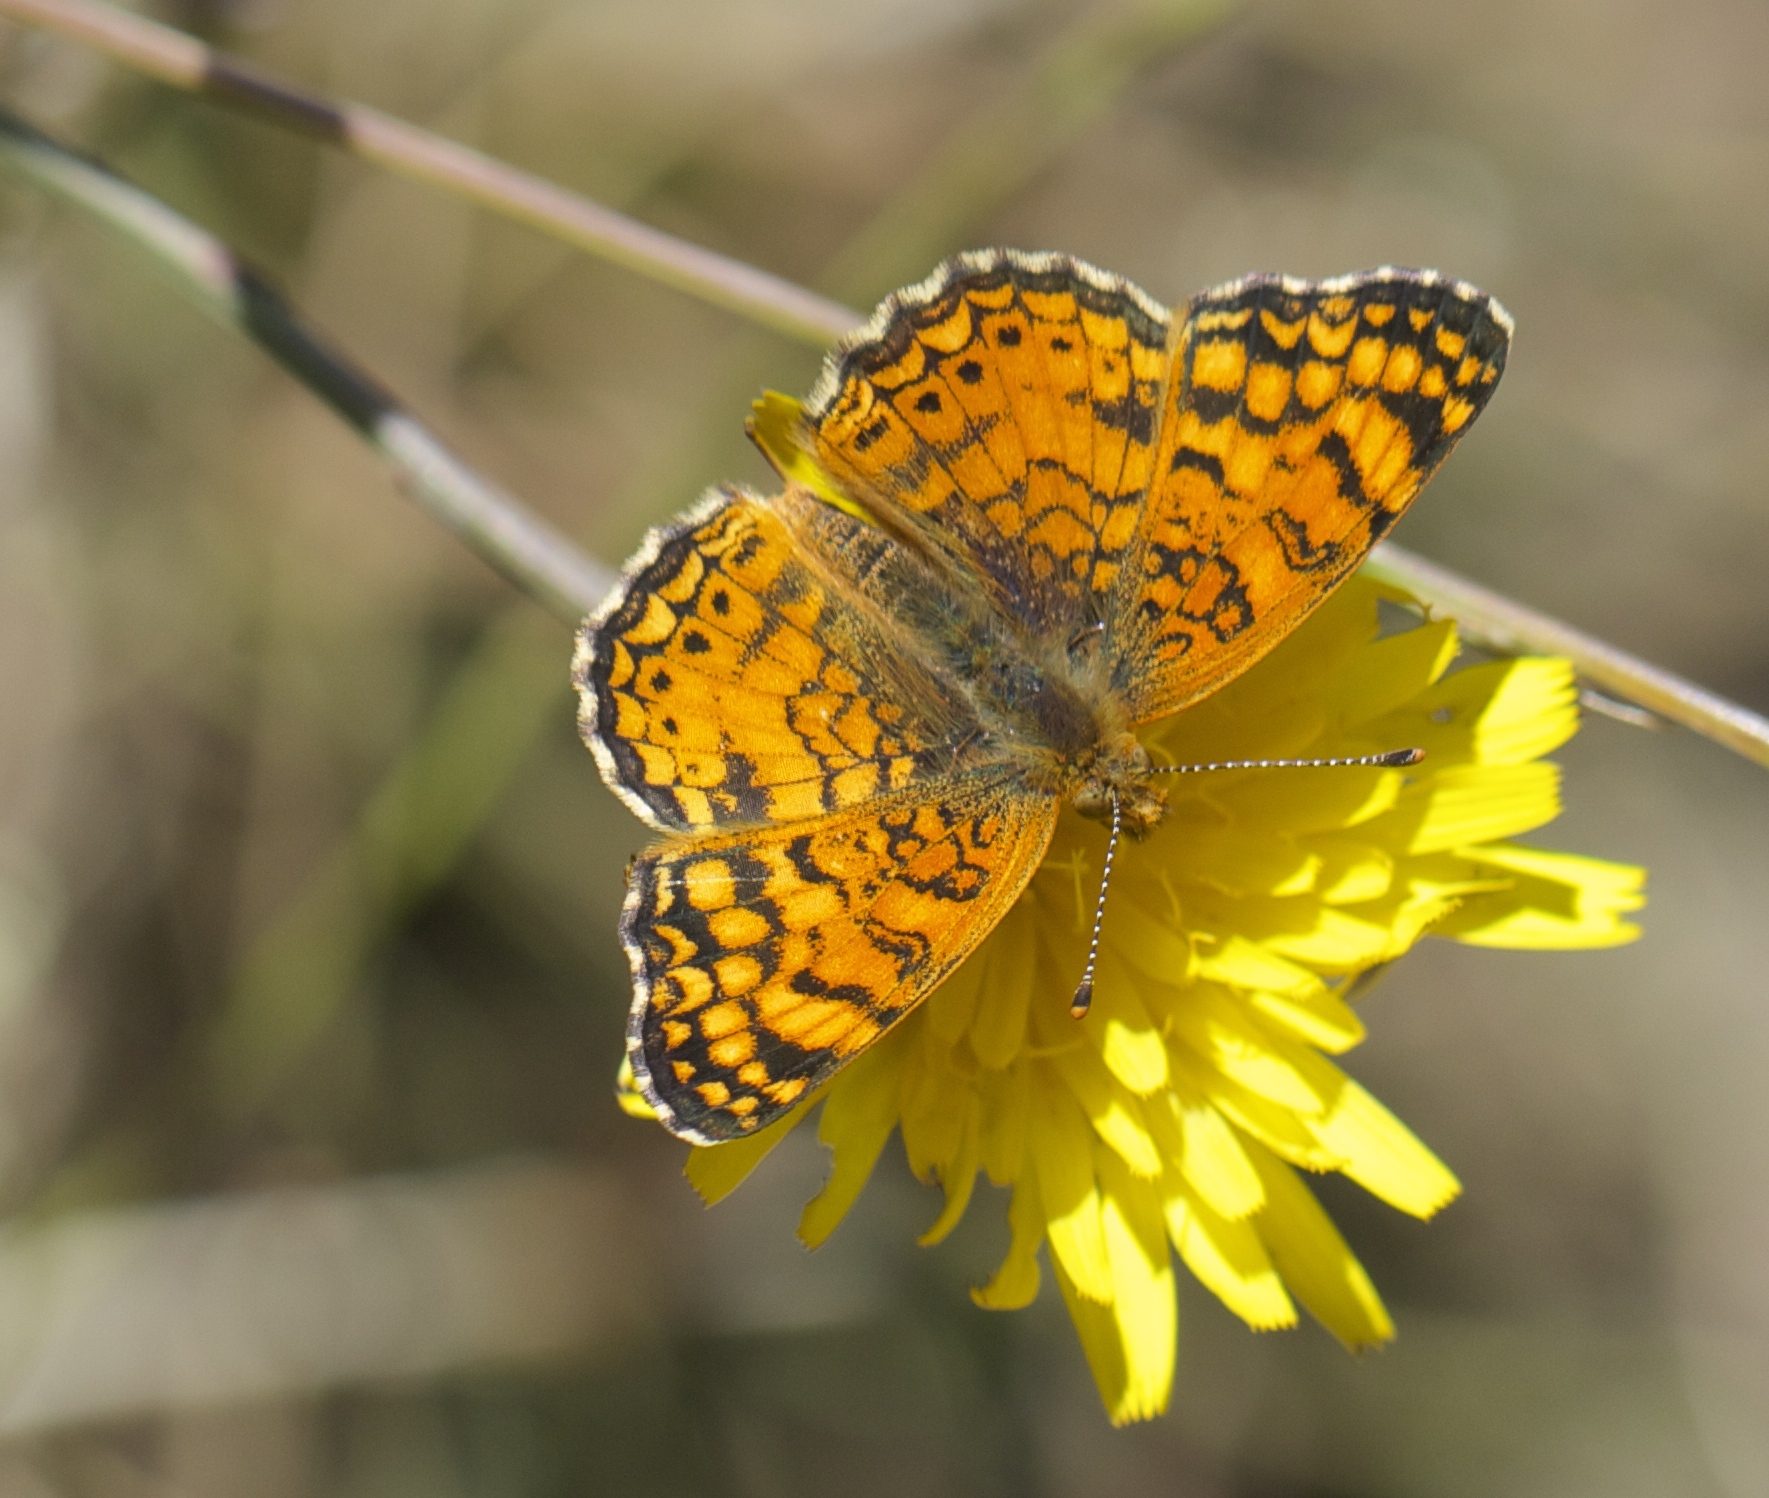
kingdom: Animalia
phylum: Arthropoda
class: Insecta
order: Lepidoptera
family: Nymphalidae
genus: Eresia
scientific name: Eresia aveyrona
